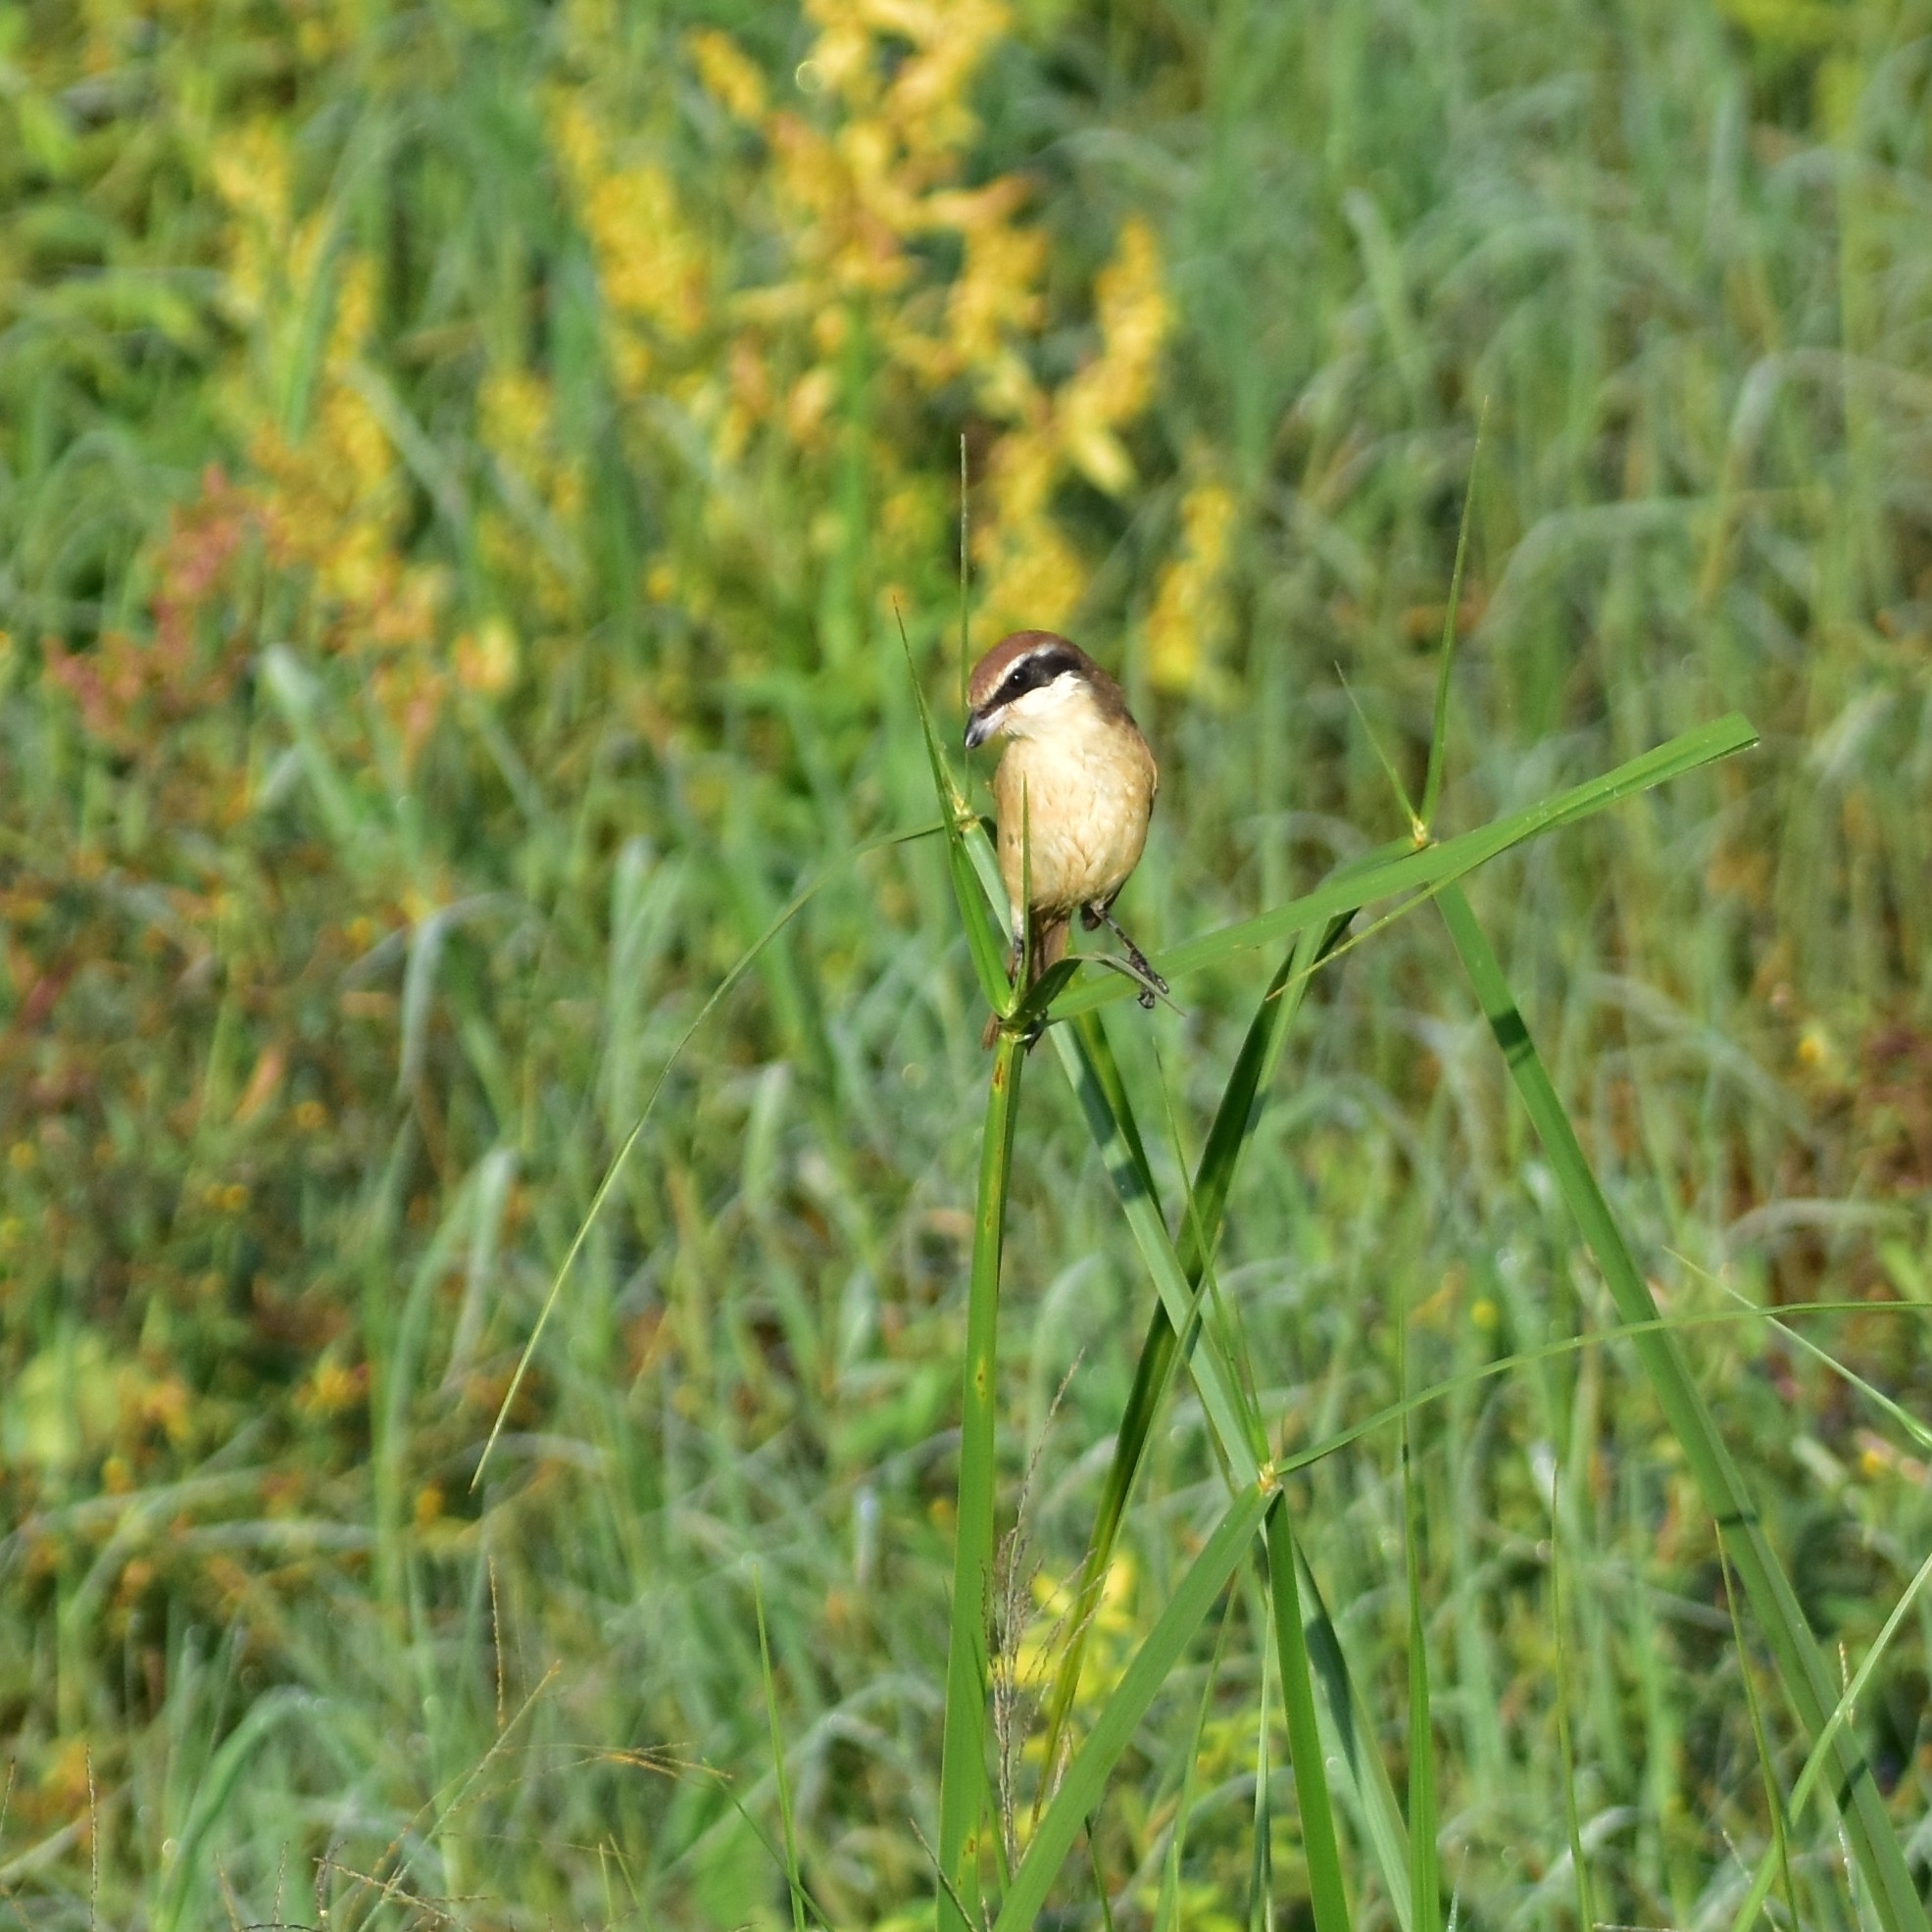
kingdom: Animalia
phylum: Chordata
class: Aves
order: Passeriformes
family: Laniidae
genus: Lanius
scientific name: Lanius cristatus
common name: Brown shrike
